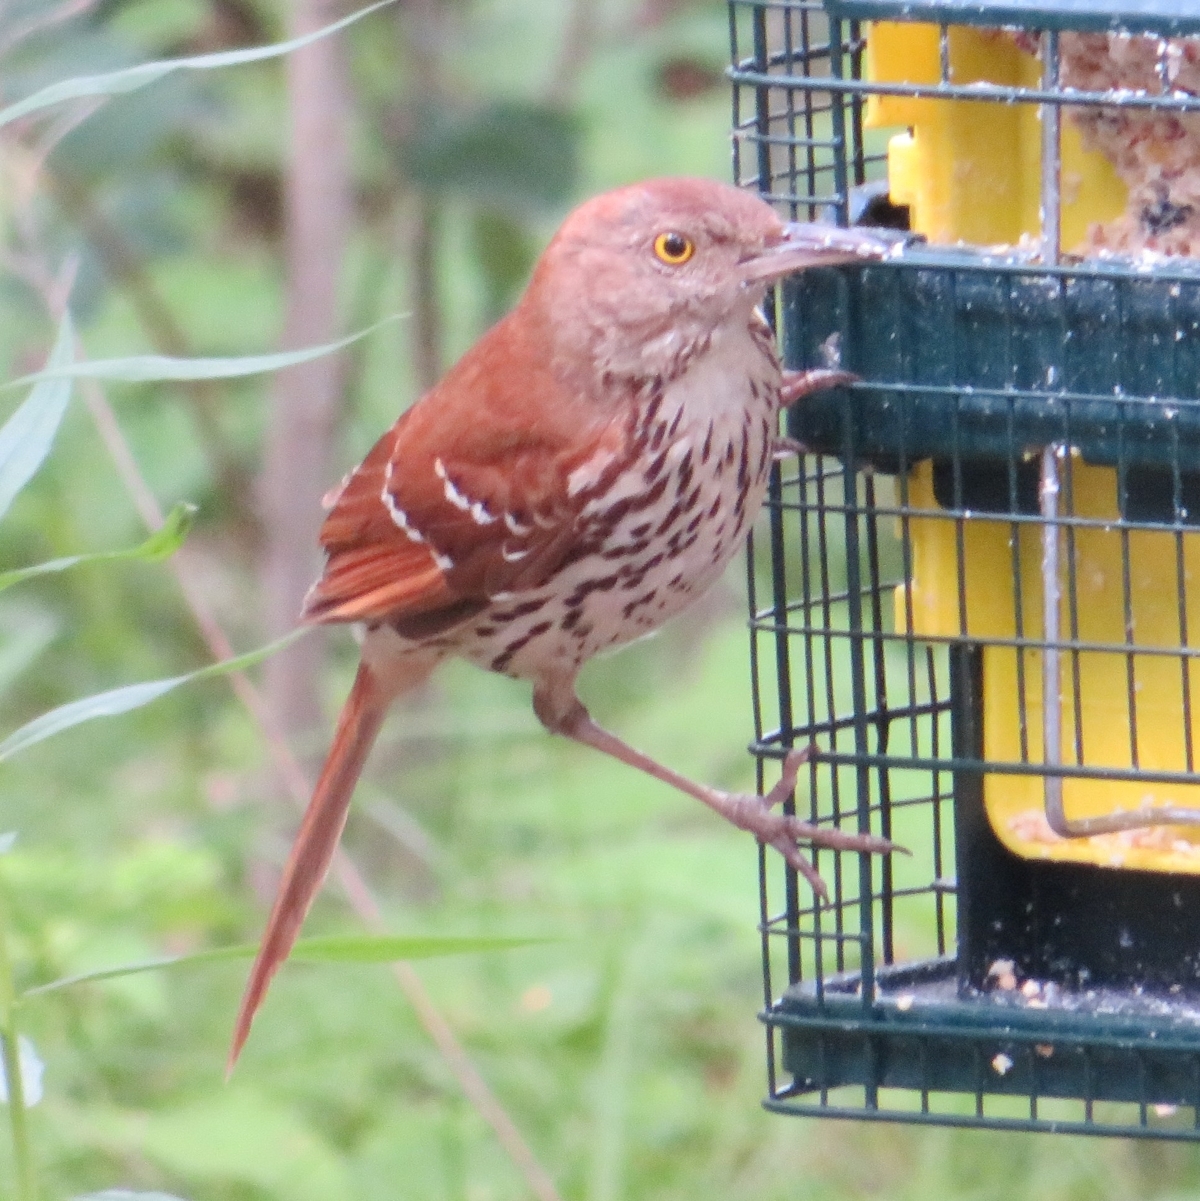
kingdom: Animalia
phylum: Chordata
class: Aves
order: Passeriformes
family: Mimidae
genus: Toxostoma
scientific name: Toxostoma rufum
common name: Brown thrasher
